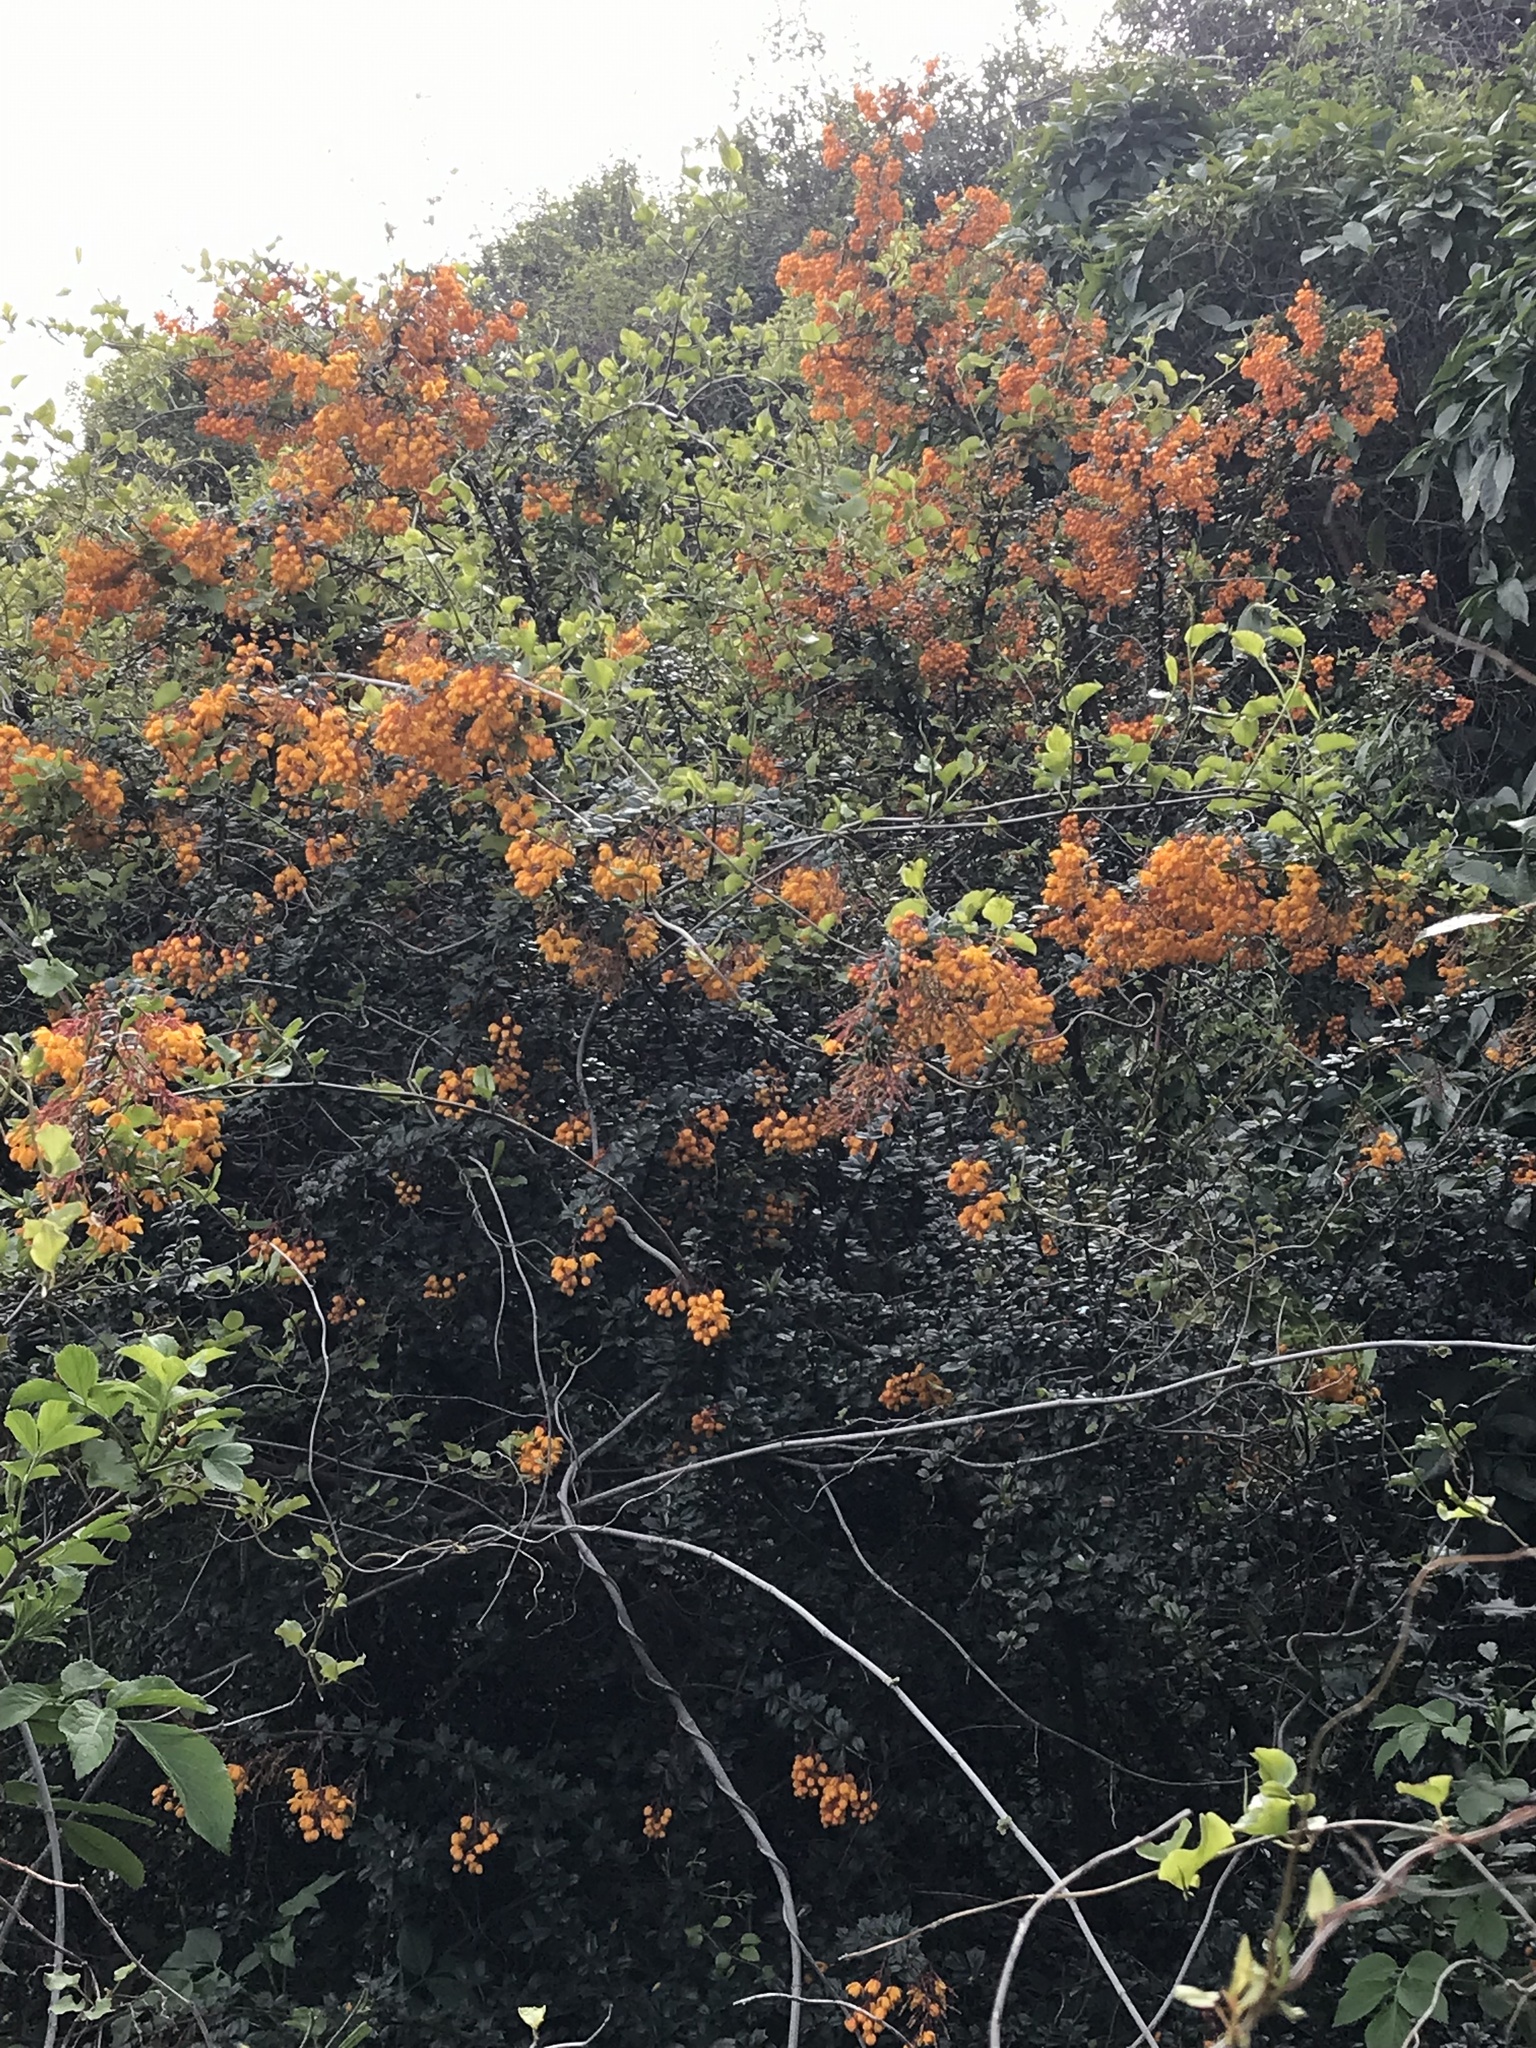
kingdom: Plantae
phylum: Tracheophyta
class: Magnoliopsida
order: Ranunculales
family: Berberidaceae
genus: Berberis
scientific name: Berberis darwinii
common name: Darwin's barberry
